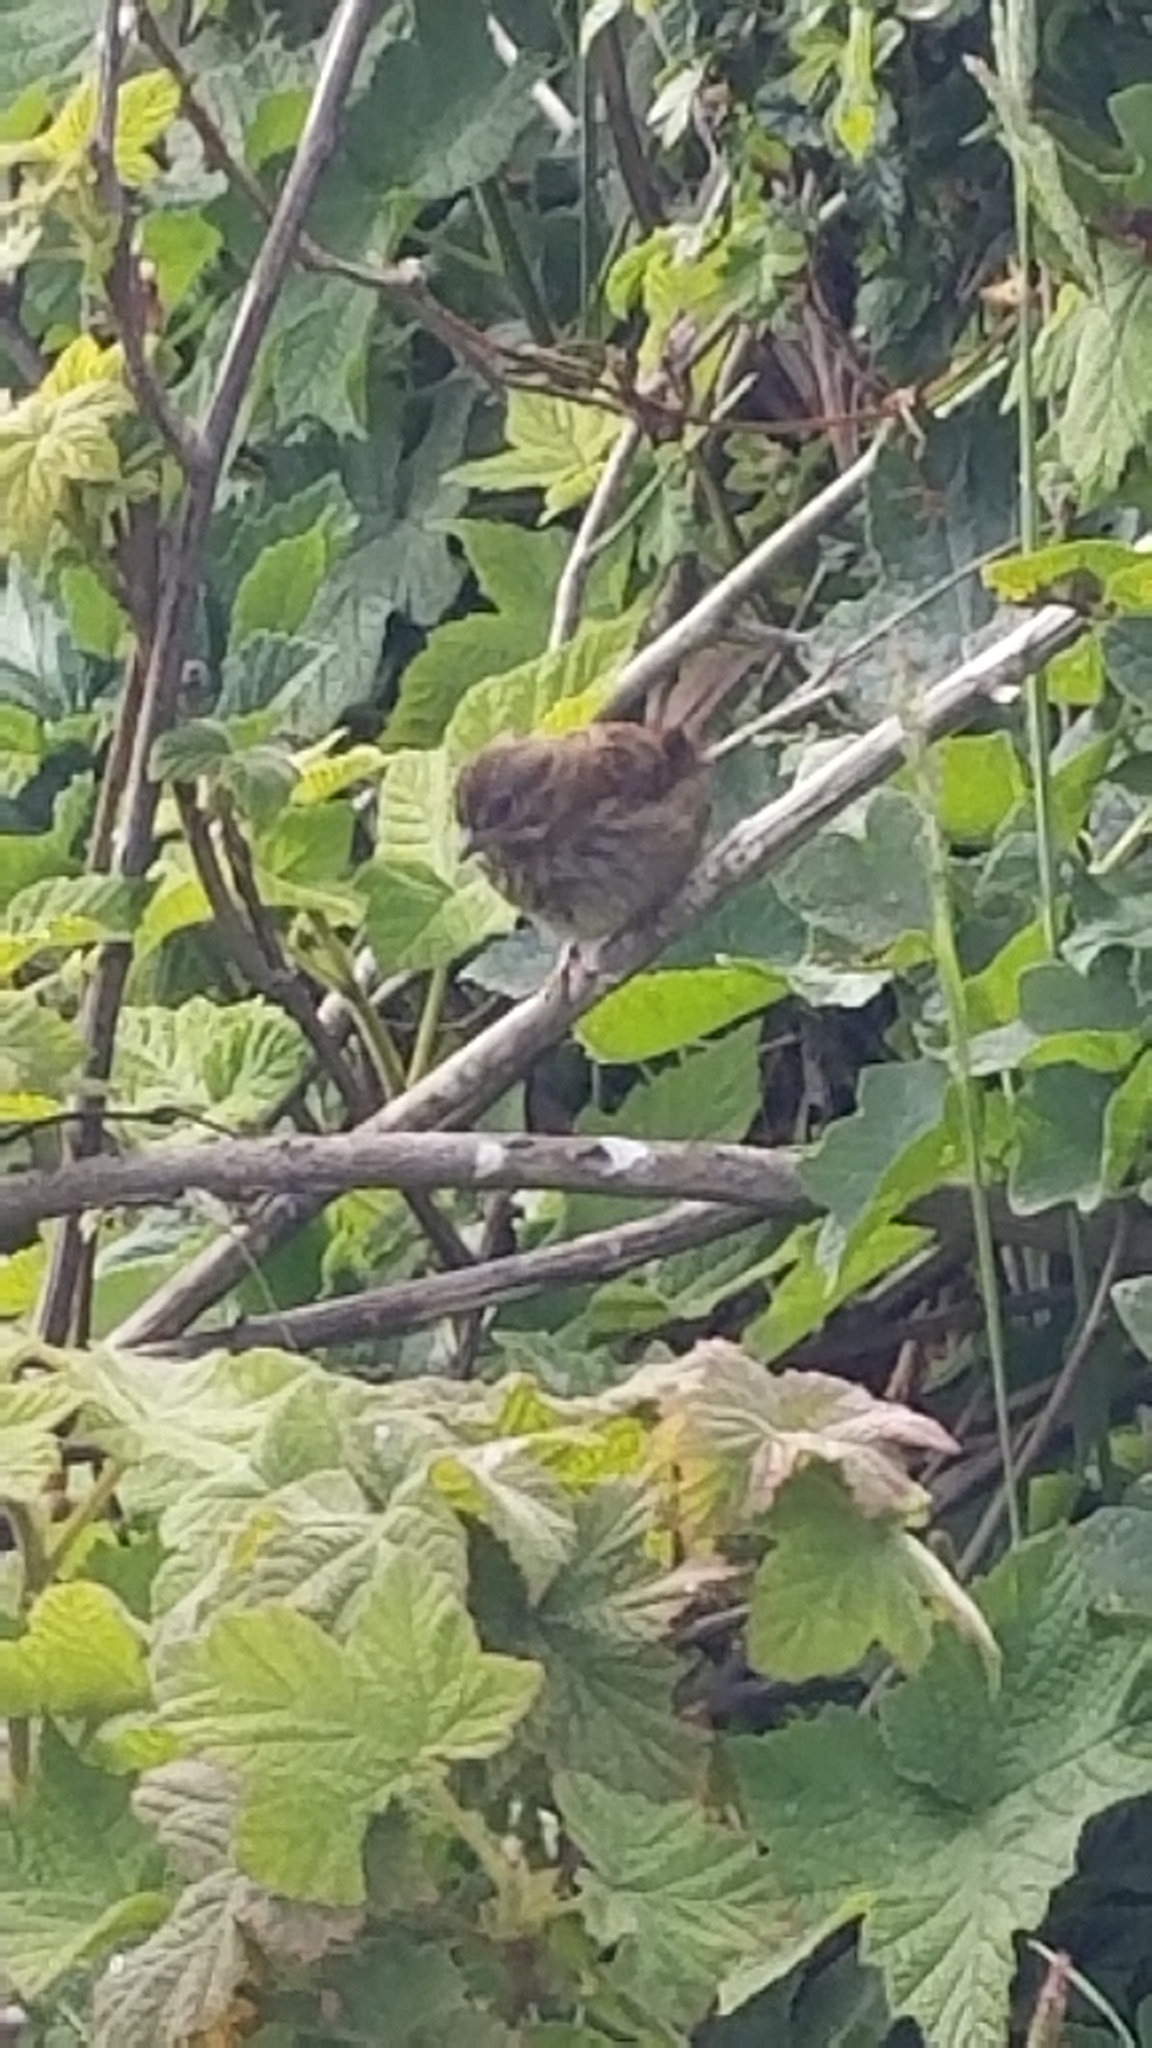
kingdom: Animalia
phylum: Chordata
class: Aves
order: Passeriformes
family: Passerellidae
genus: Melospiza
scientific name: Melospiza melodia
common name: Song sparrow
